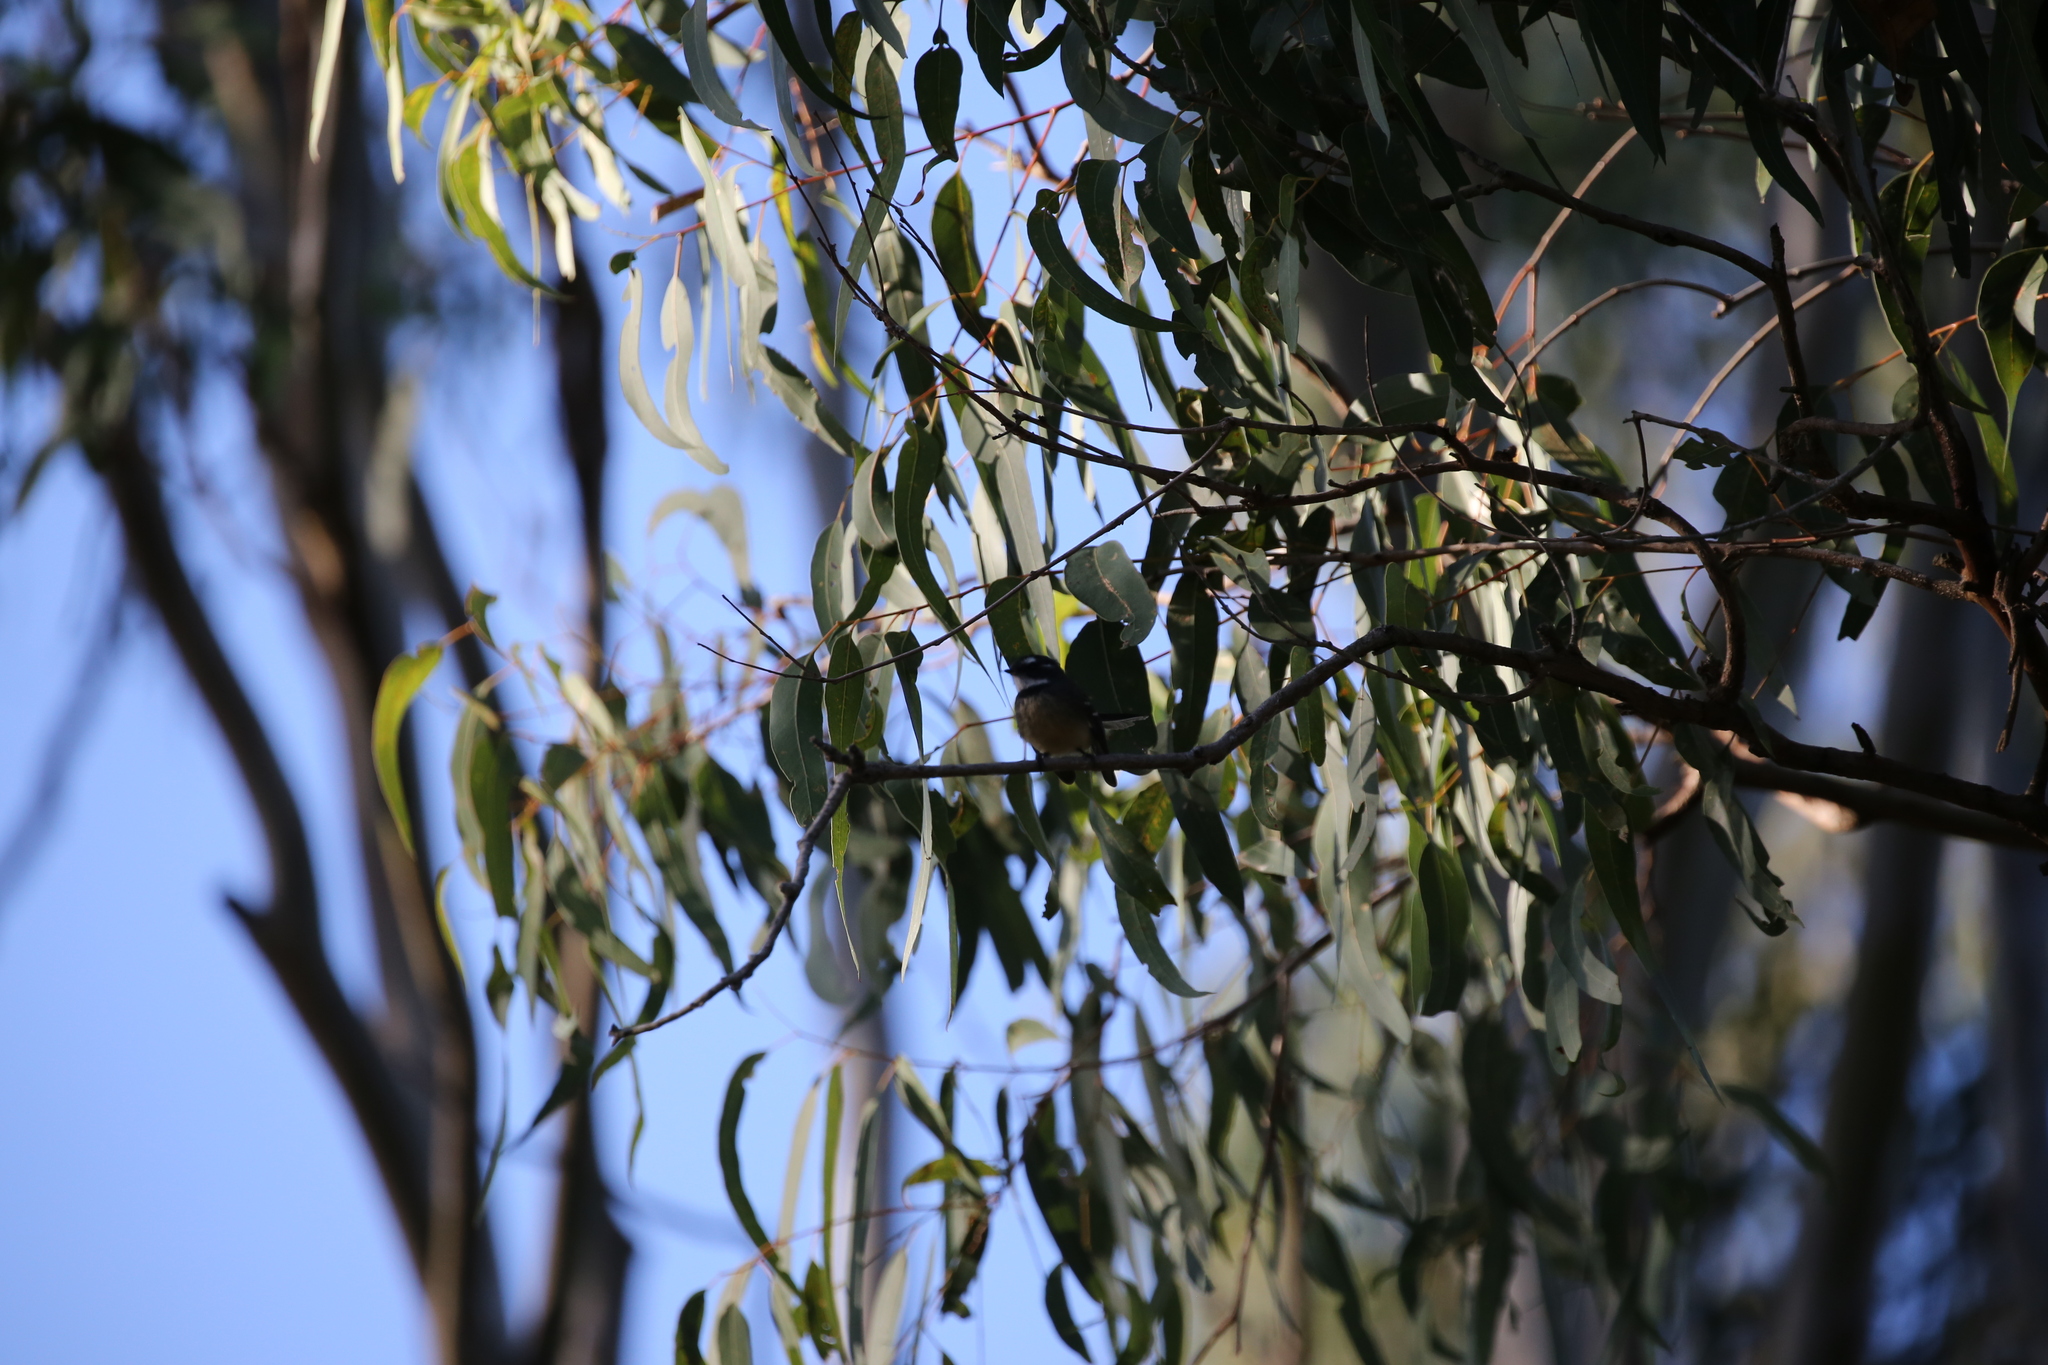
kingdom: Animalia
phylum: Chordata
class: Aves
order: Passeriformes
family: Rhipiduridae
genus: Rhipidura
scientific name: Rhipidura albiscapa
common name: Grey fantail
